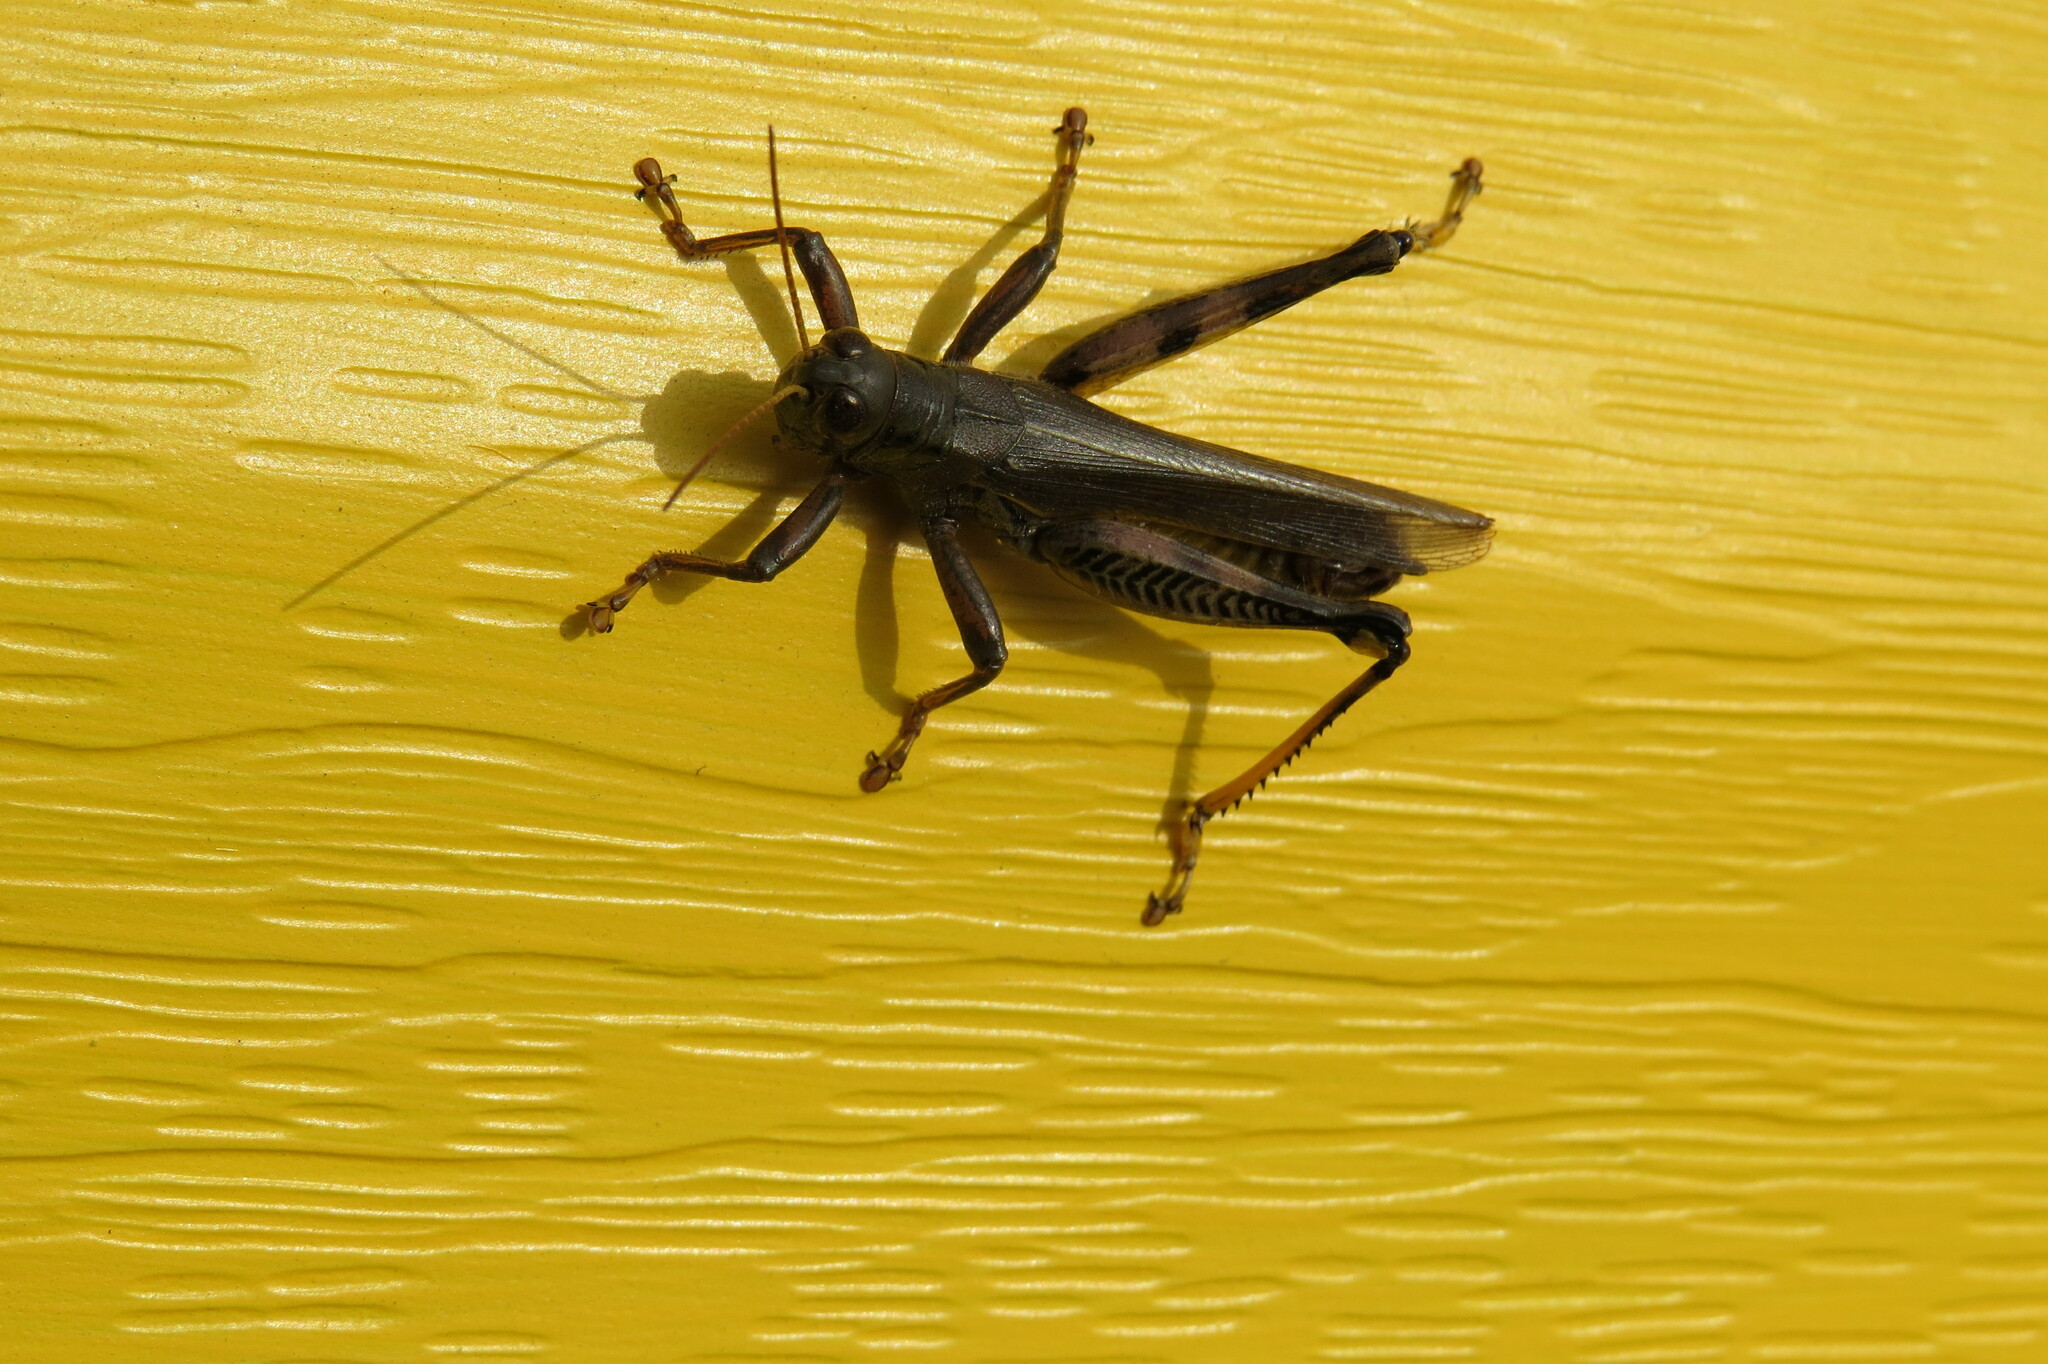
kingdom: Animalia
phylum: Arthropoda
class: Insecta
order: Orthoptera
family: Acrididae
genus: Melanoplus
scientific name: Melanoplus differentialis
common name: Differential grasshopper
